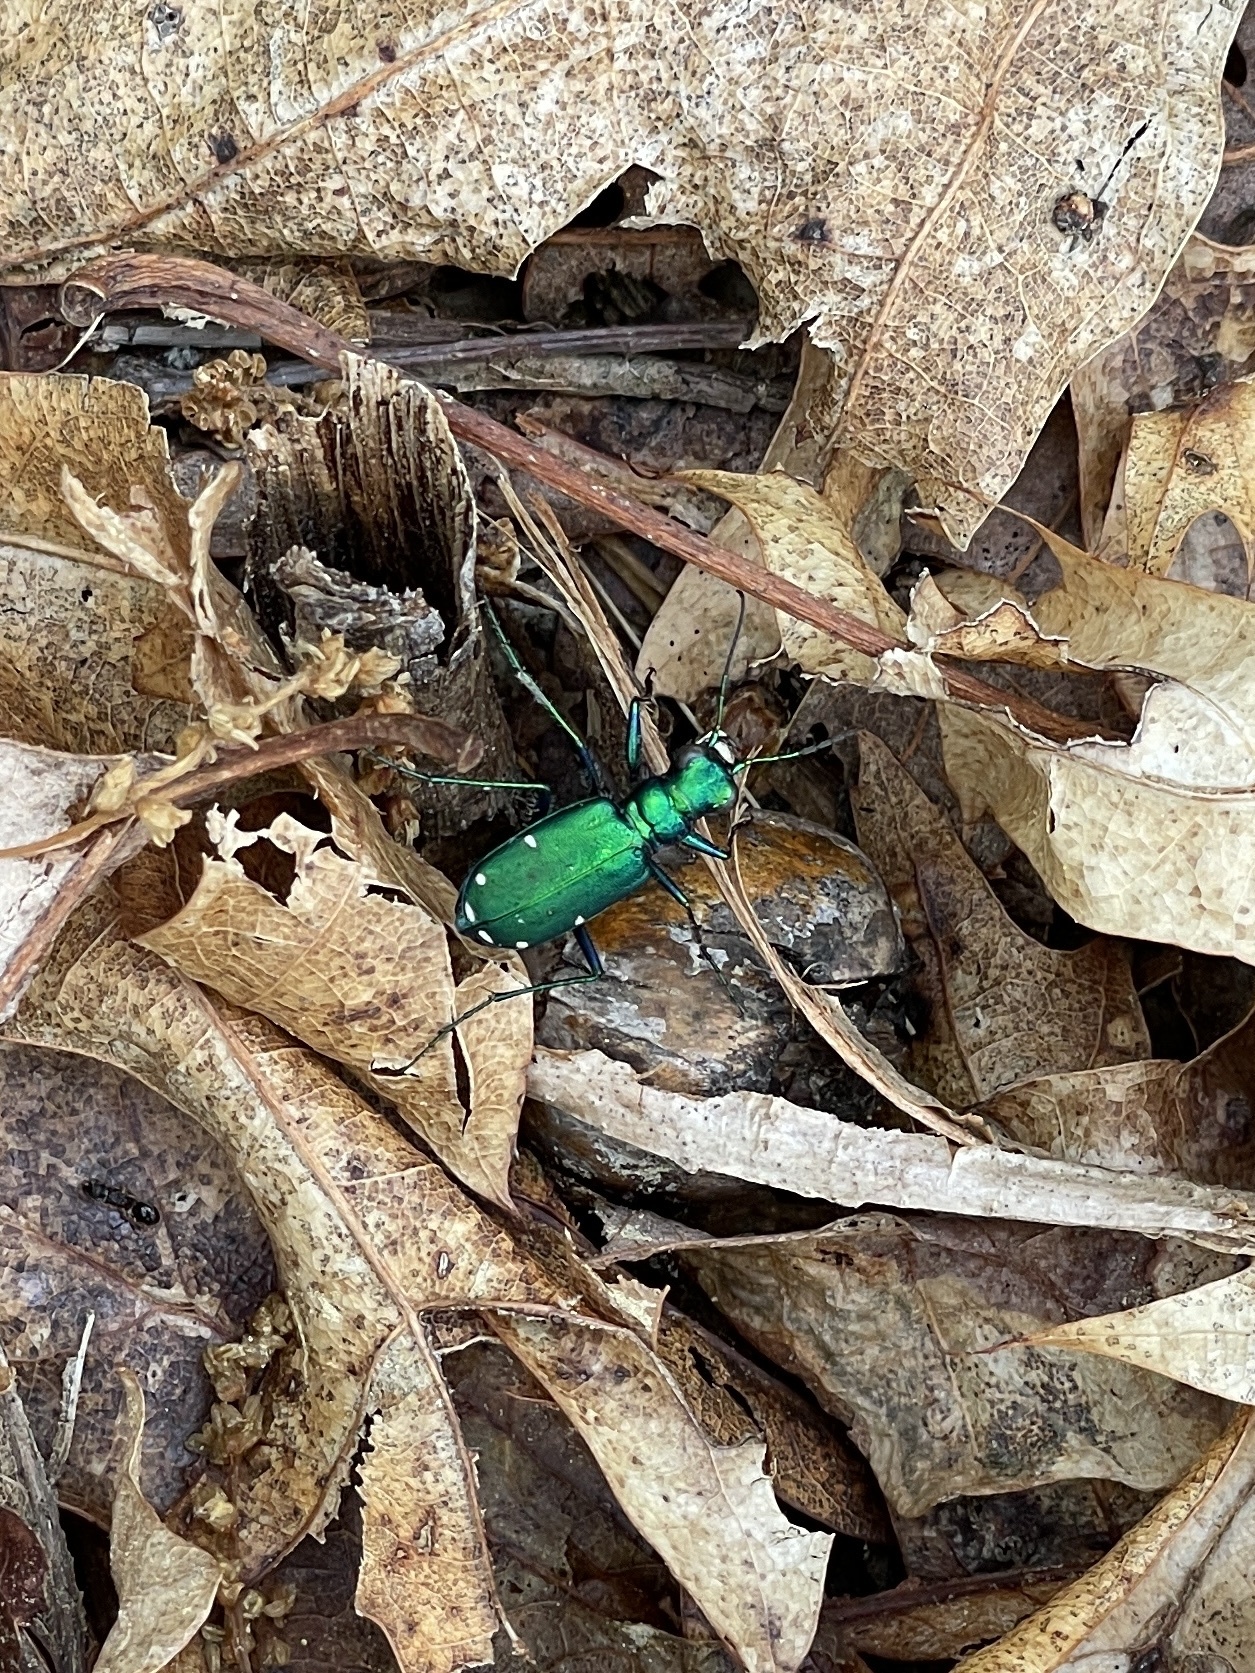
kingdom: Animalia
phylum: Arthropoda
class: Insecta
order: Coleoptera
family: Carabidae
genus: Cicindela
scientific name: Cicindela sexguttata
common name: Six-spotted tiger beetle
